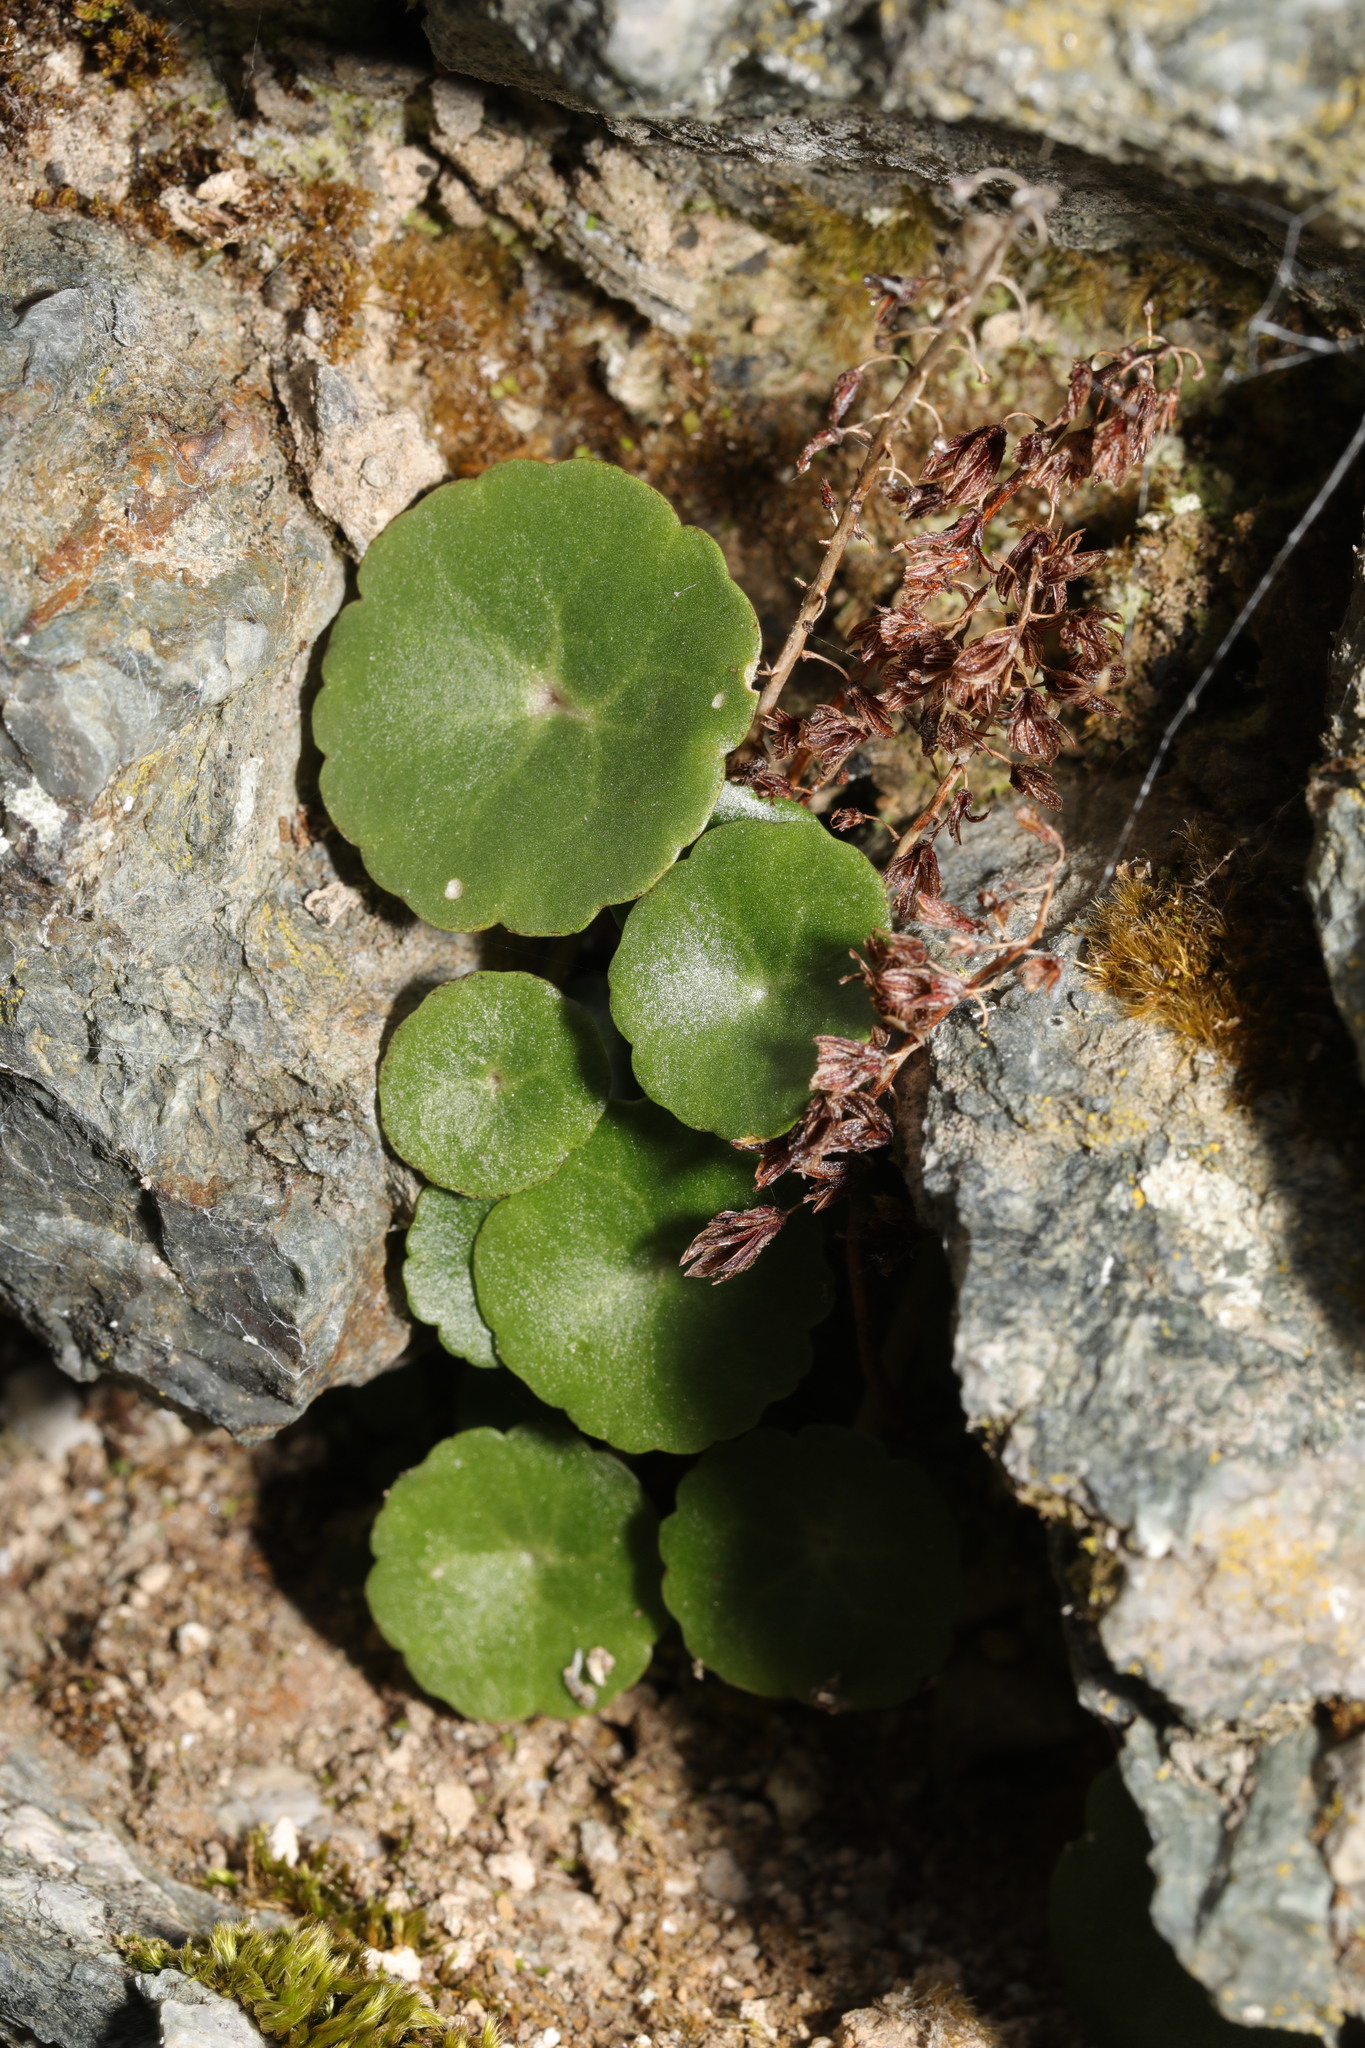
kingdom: Plantae
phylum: Tracheophyta
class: Magnoliopsida
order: Saxifragales
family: Crassulaceae
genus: Umbilicus
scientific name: Umbilicus rupestris
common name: Navelwort
